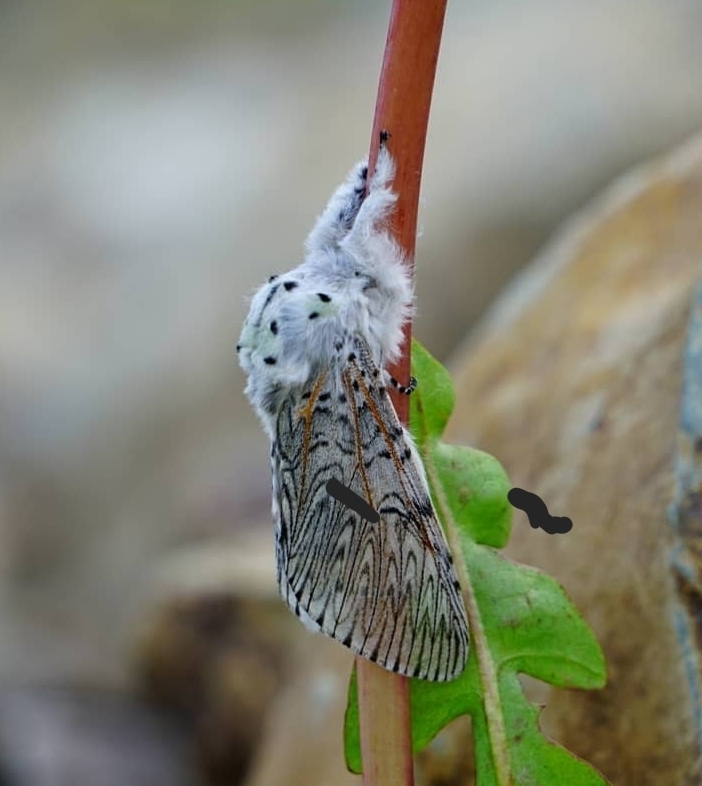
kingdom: Animalia
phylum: Arthropoda
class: Insecta
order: Lepidoptera
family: Notodontidae
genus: Cerura
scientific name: Cerura vinula
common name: Puss moth
